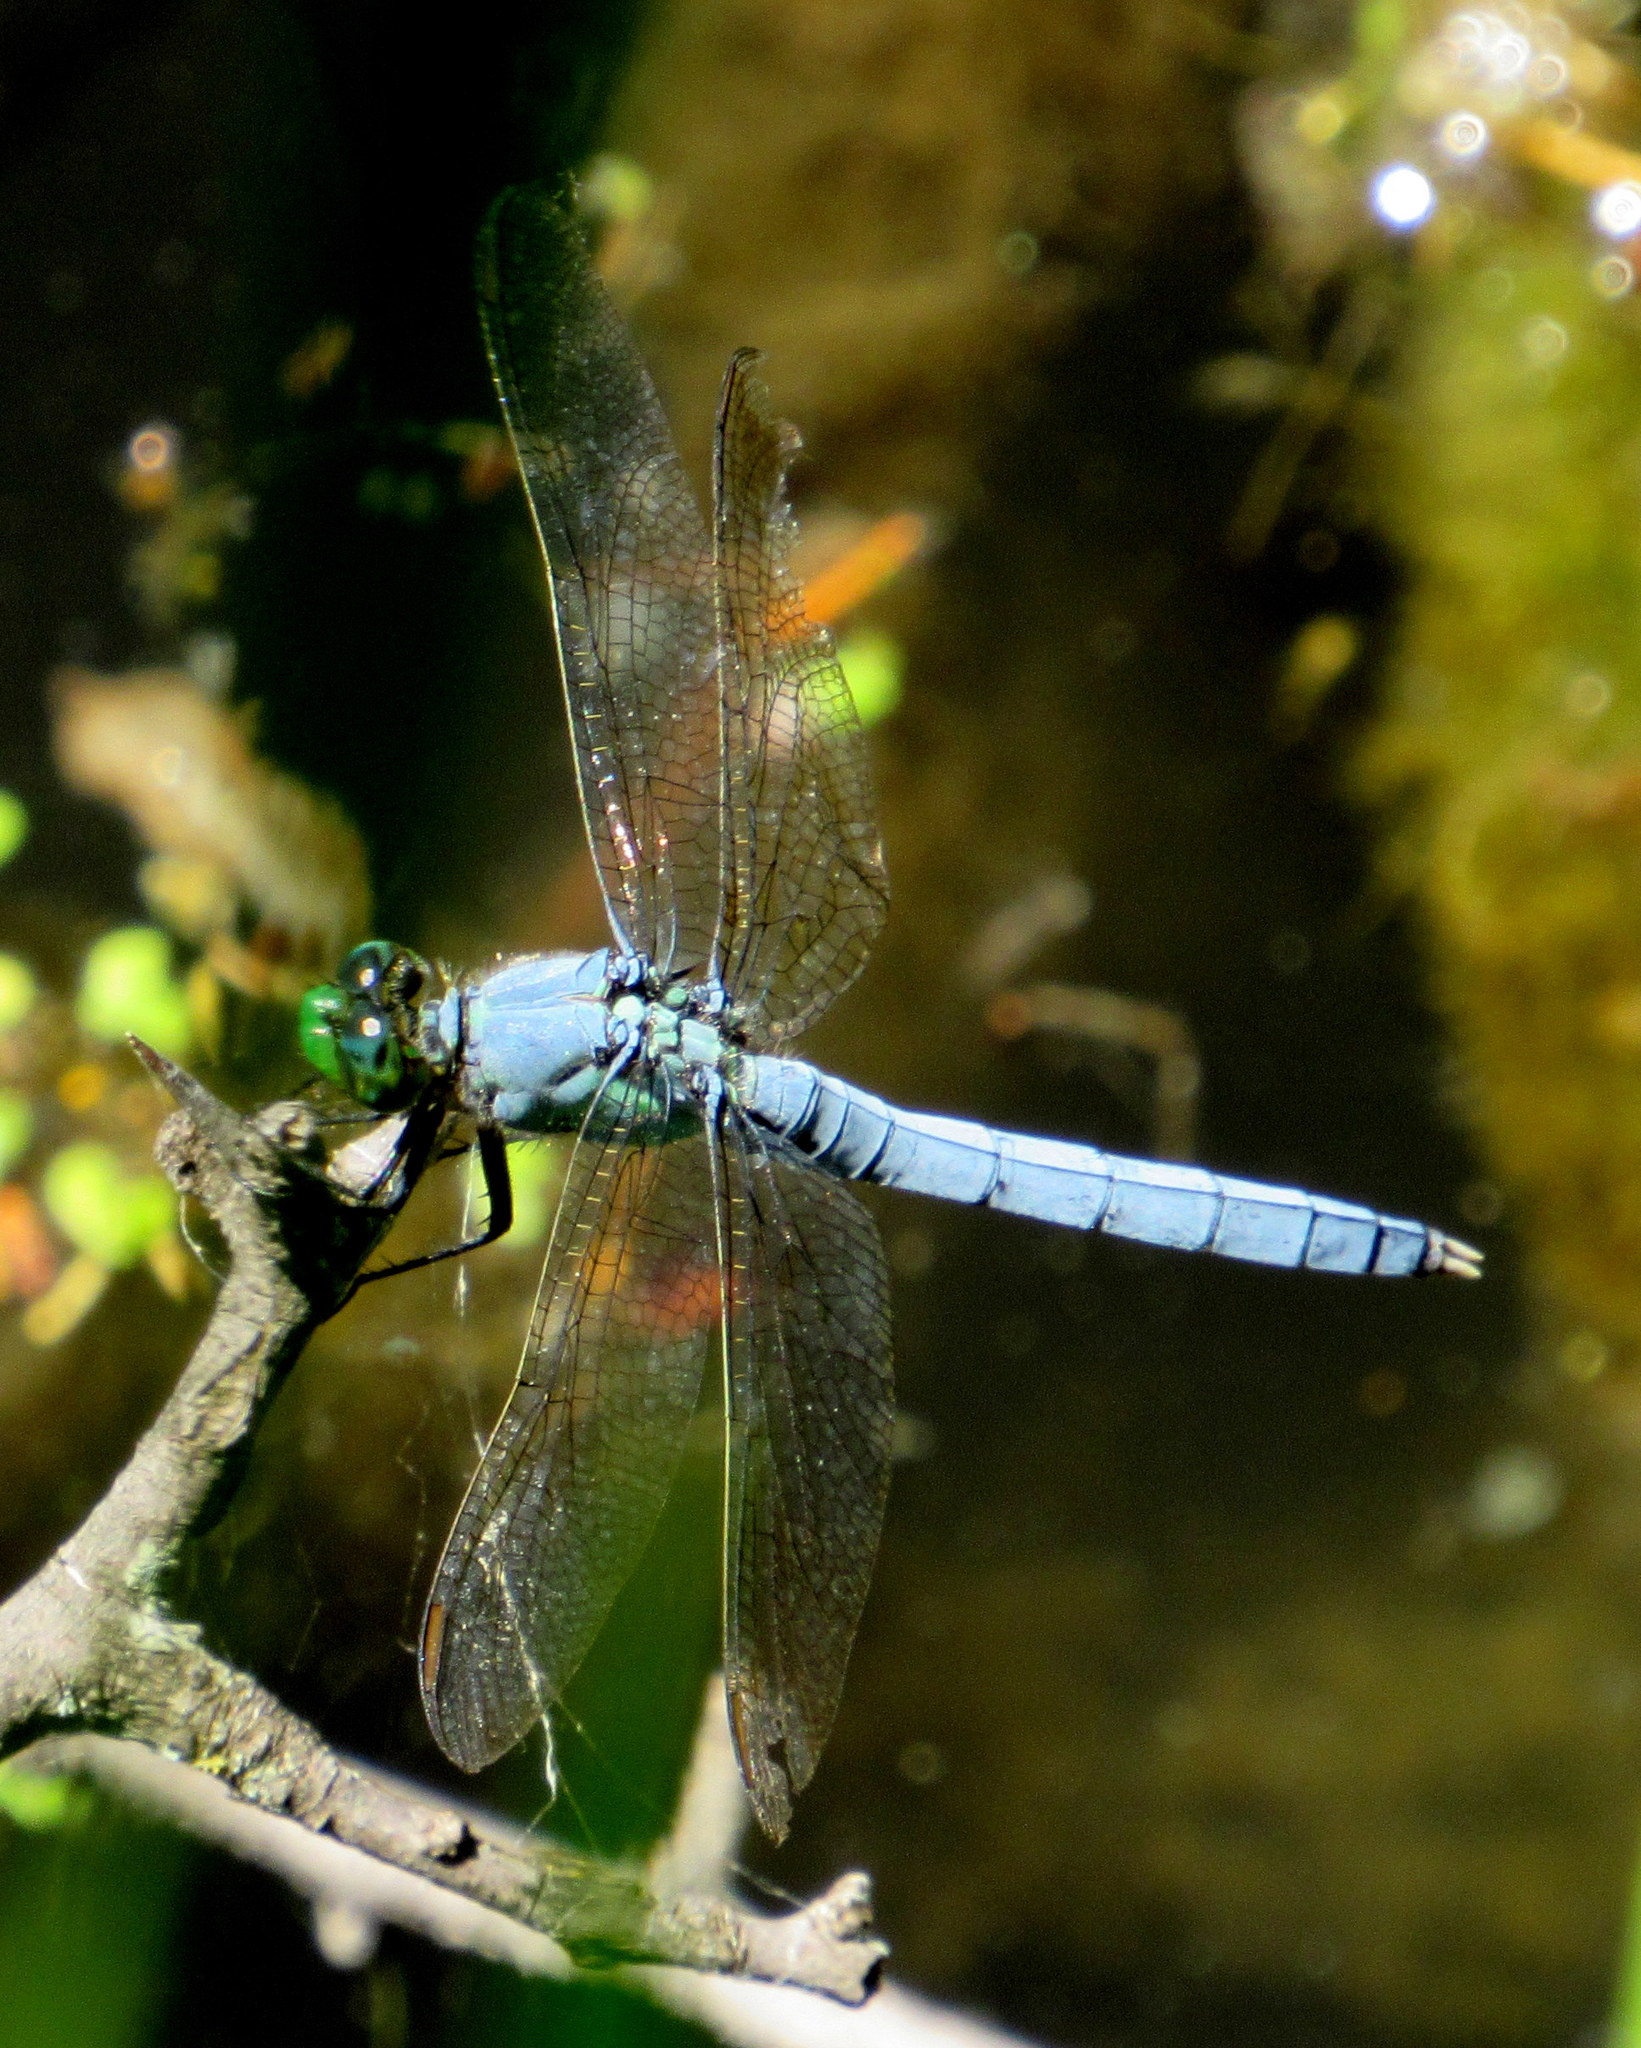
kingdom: Animalia
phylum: Arthropoda
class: Insecta
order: Odonata
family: Libellulidae
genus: Erythemis
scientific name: Erythemis simplicicollis
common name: Eastern pondhawk
